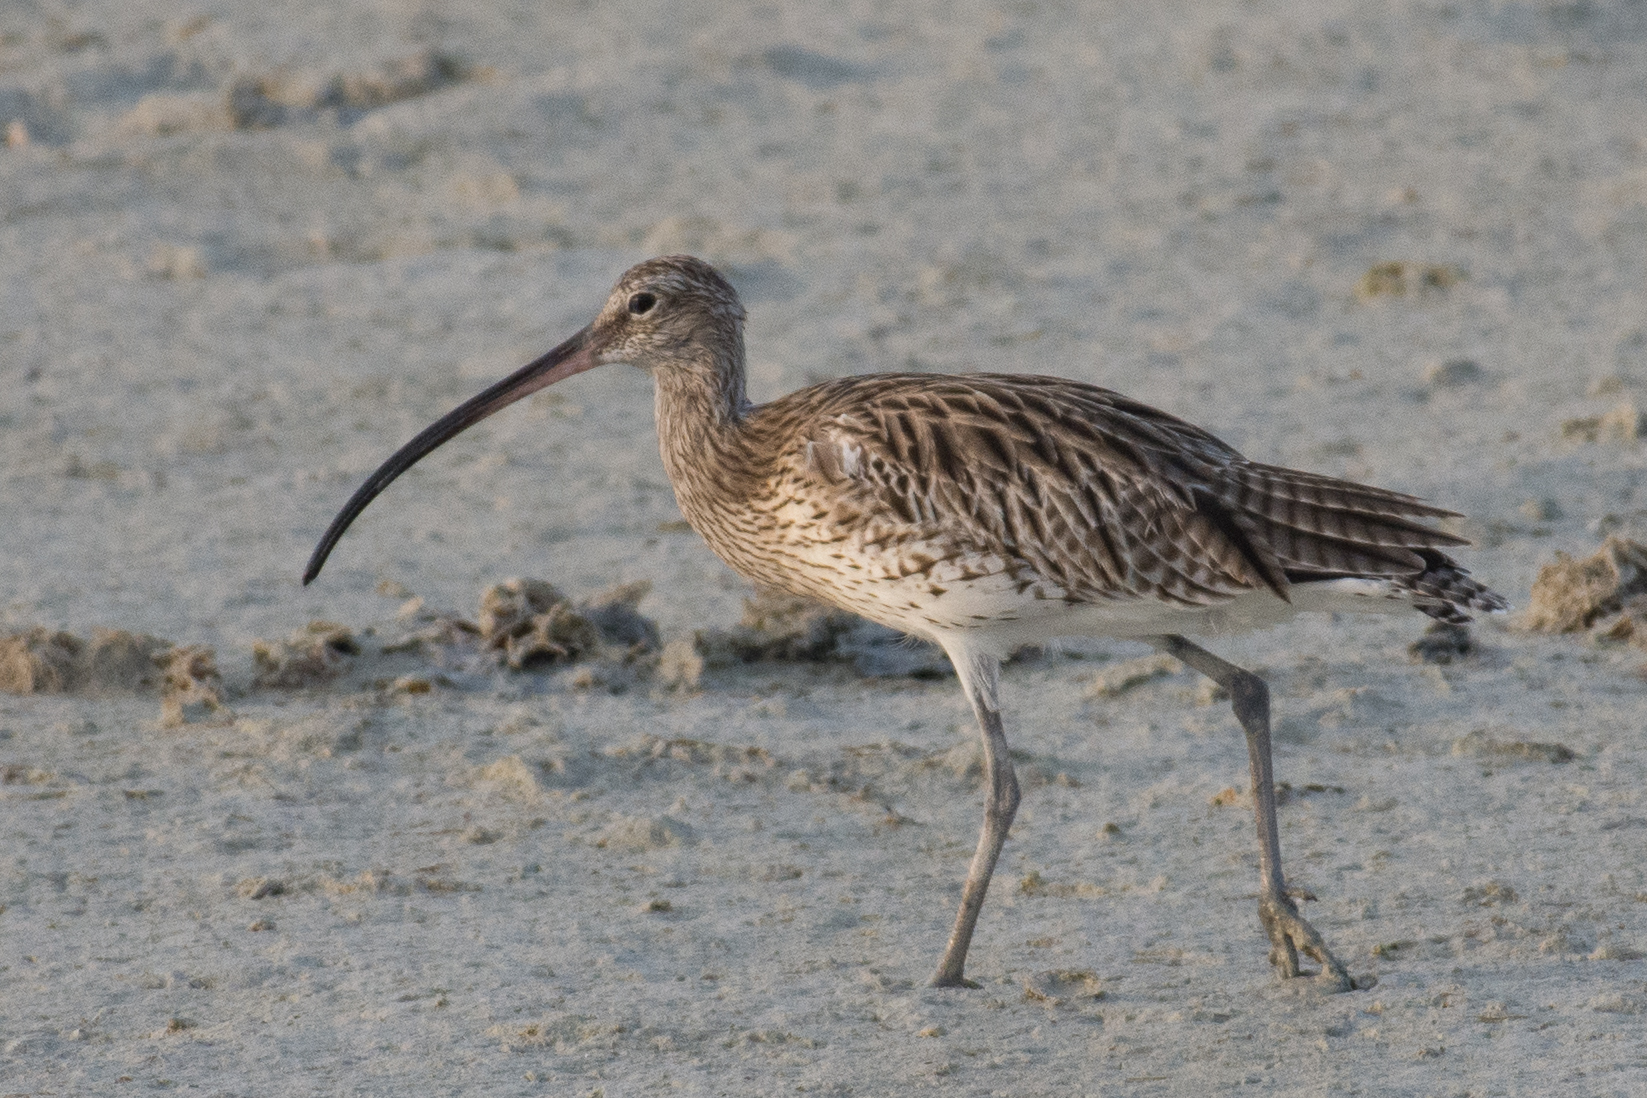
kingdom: Animalia
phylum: Chordata
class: Aves
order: Charadriiformes
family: Scolopacidae
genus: Numenius
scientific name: Numenius arquata
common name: Eurasian curlew
